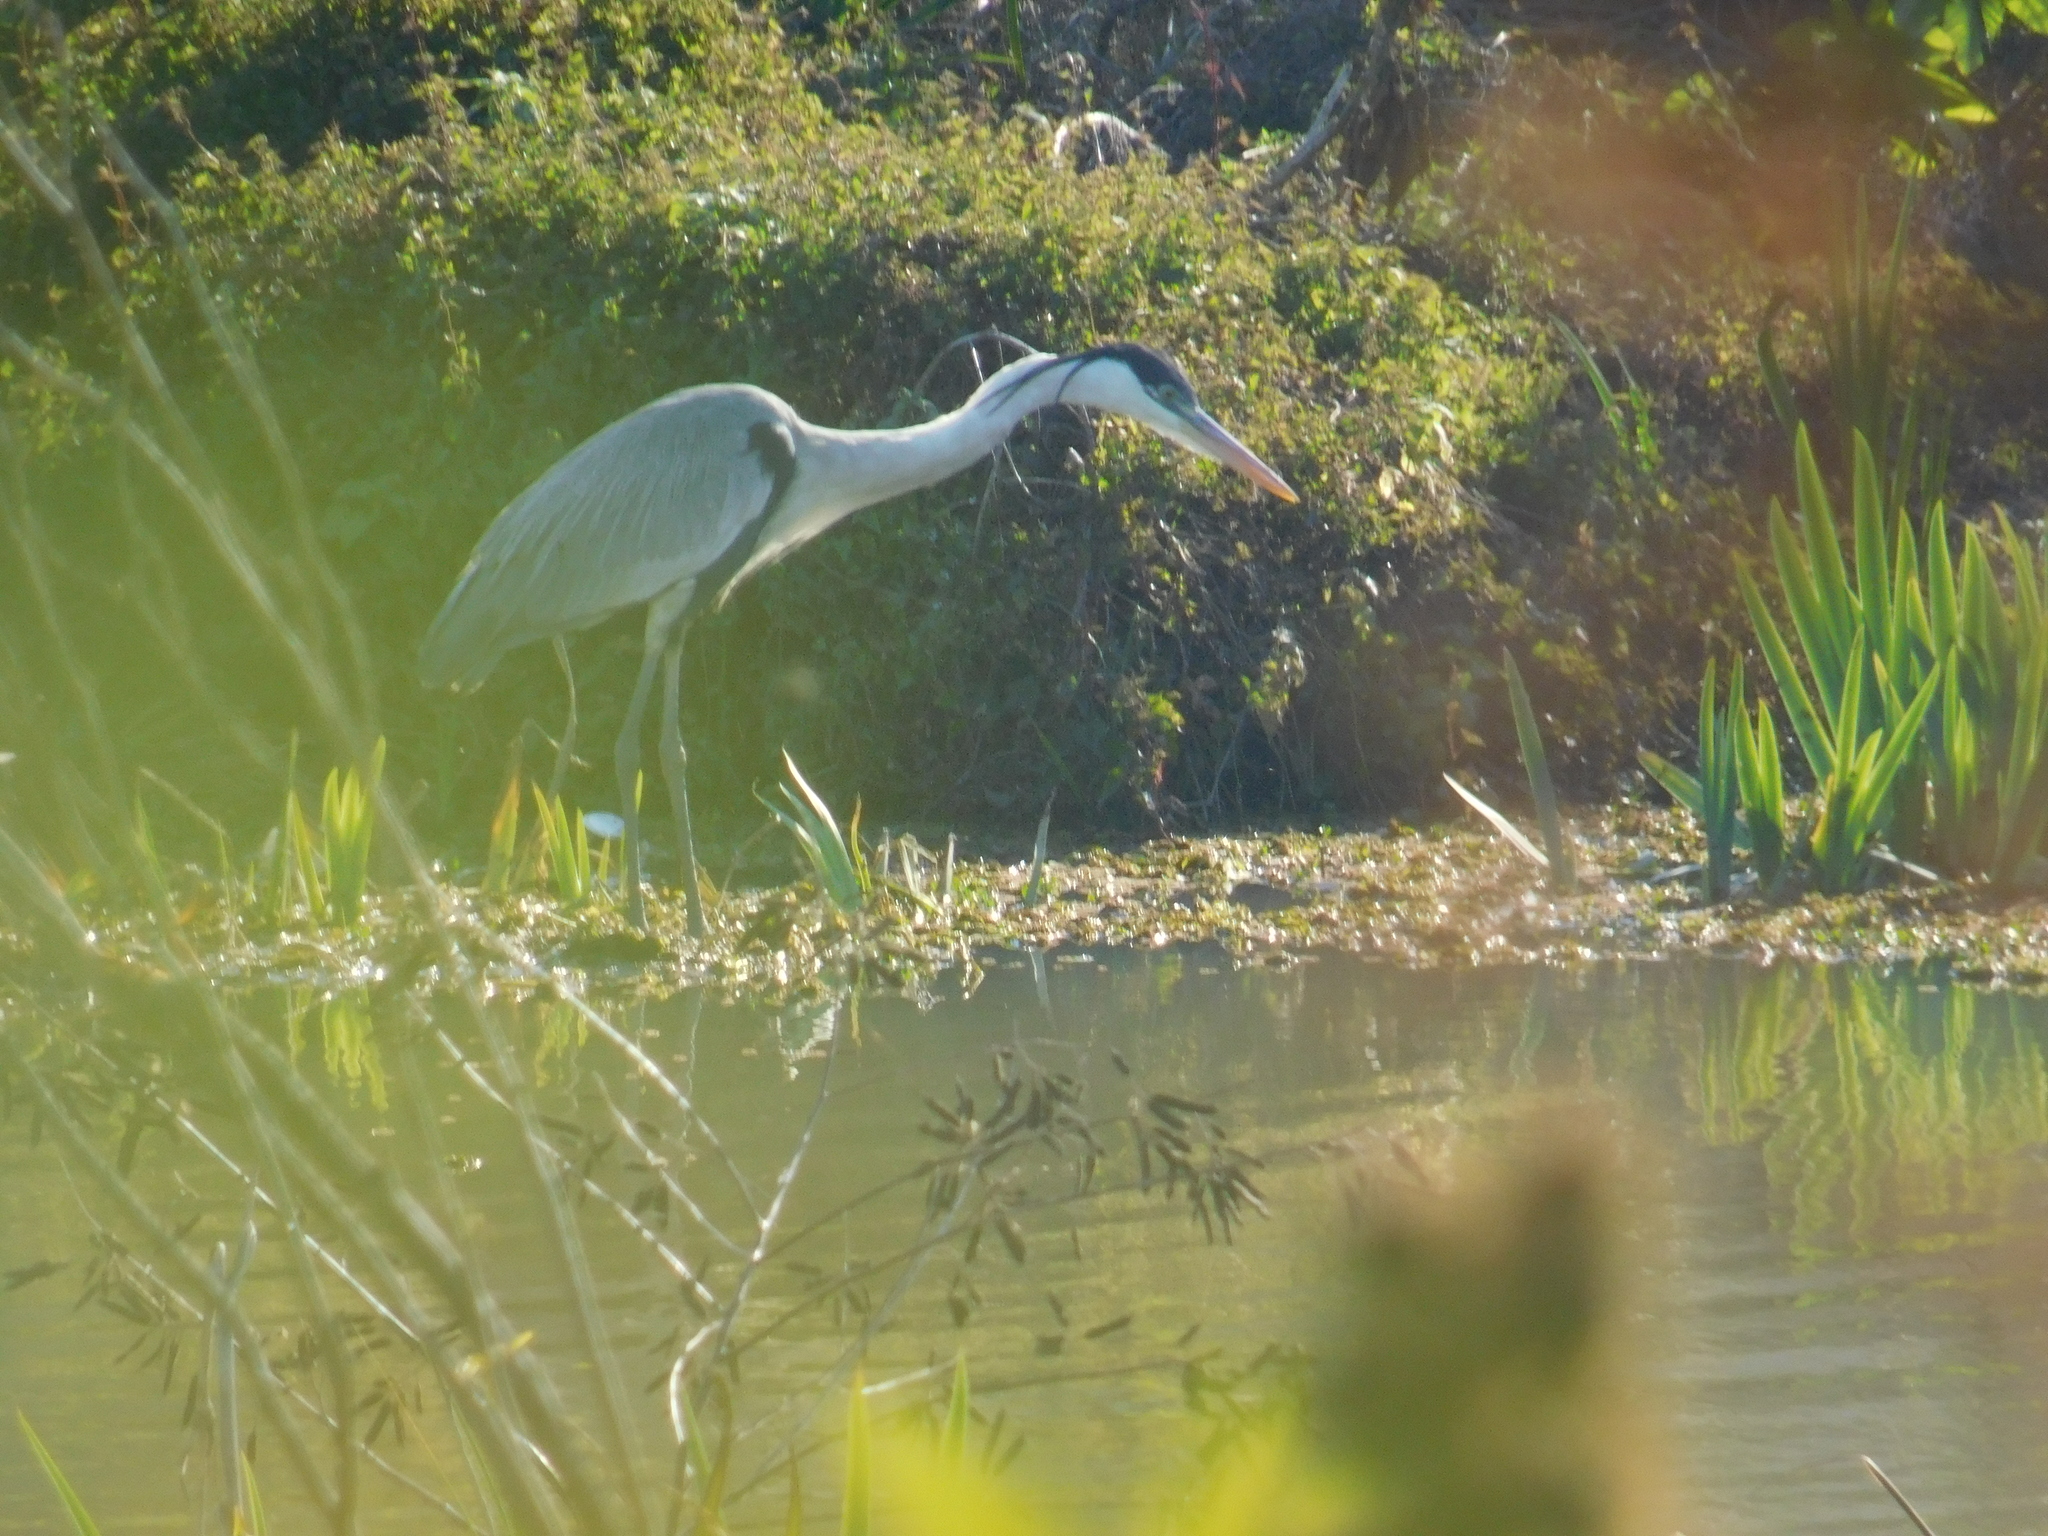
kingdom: Animalia
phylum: Chordata
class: Aves
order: Pelecaniformes
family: Ardeidae
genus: Ardea
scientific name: Ardea cocoi
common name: Cocoi heron
